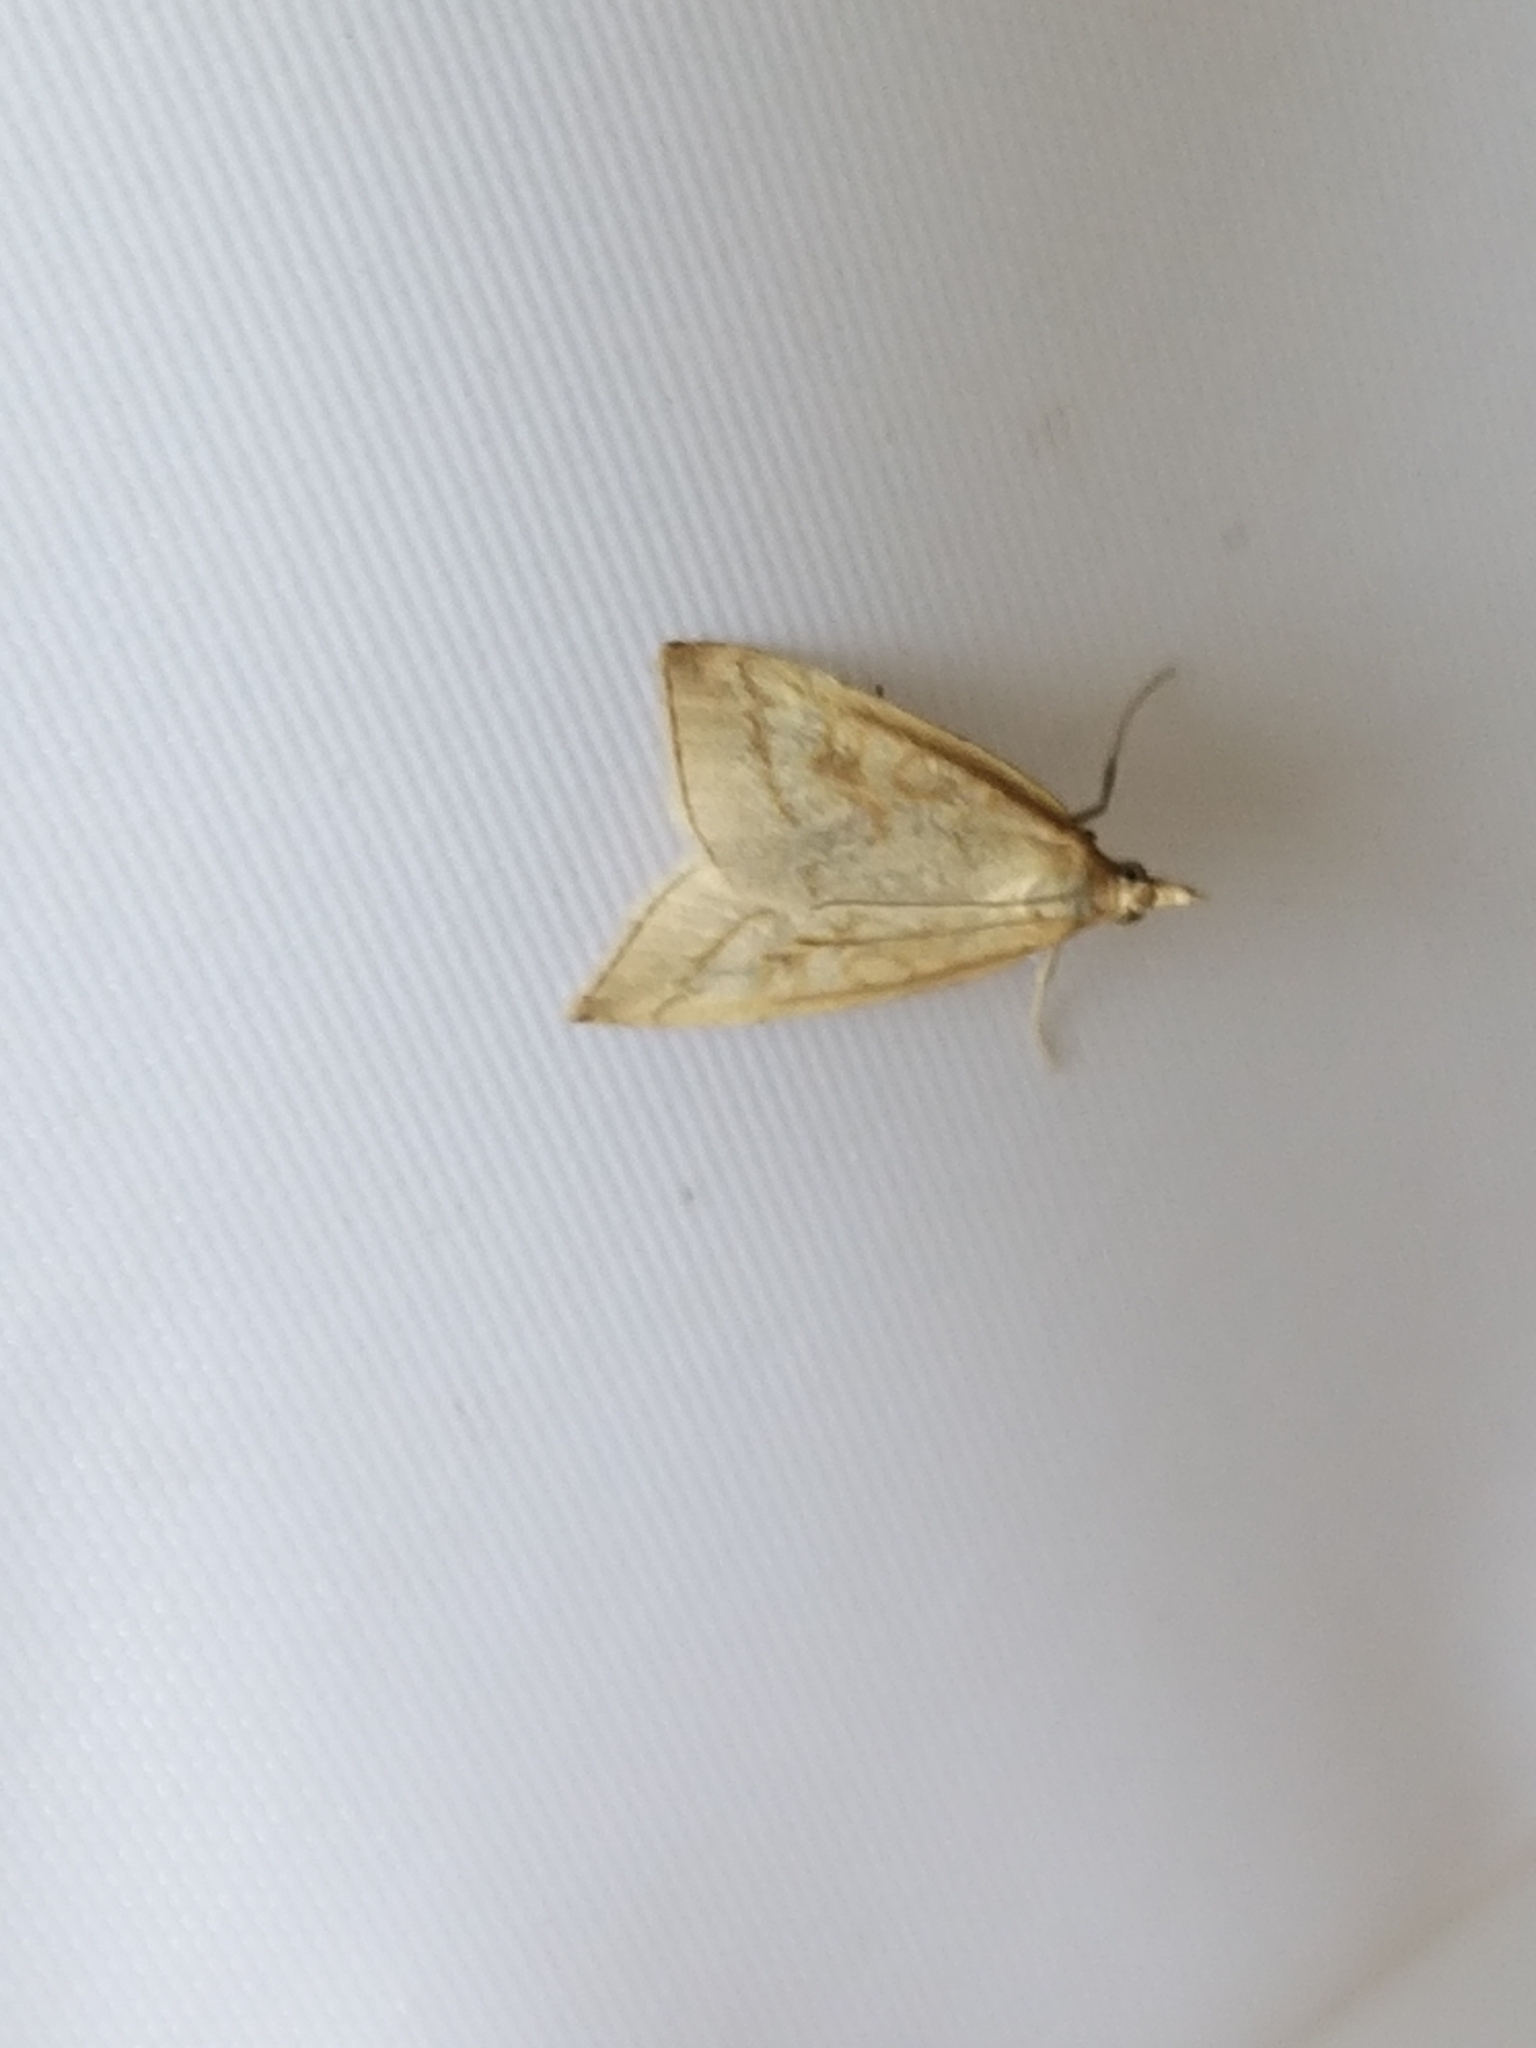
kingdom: Animalia
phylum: Arthropoda
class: Insecta
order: Lepidoptera
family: Crambidae
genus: Udea
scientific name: Udea lutealis
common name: Pale straw pearl
